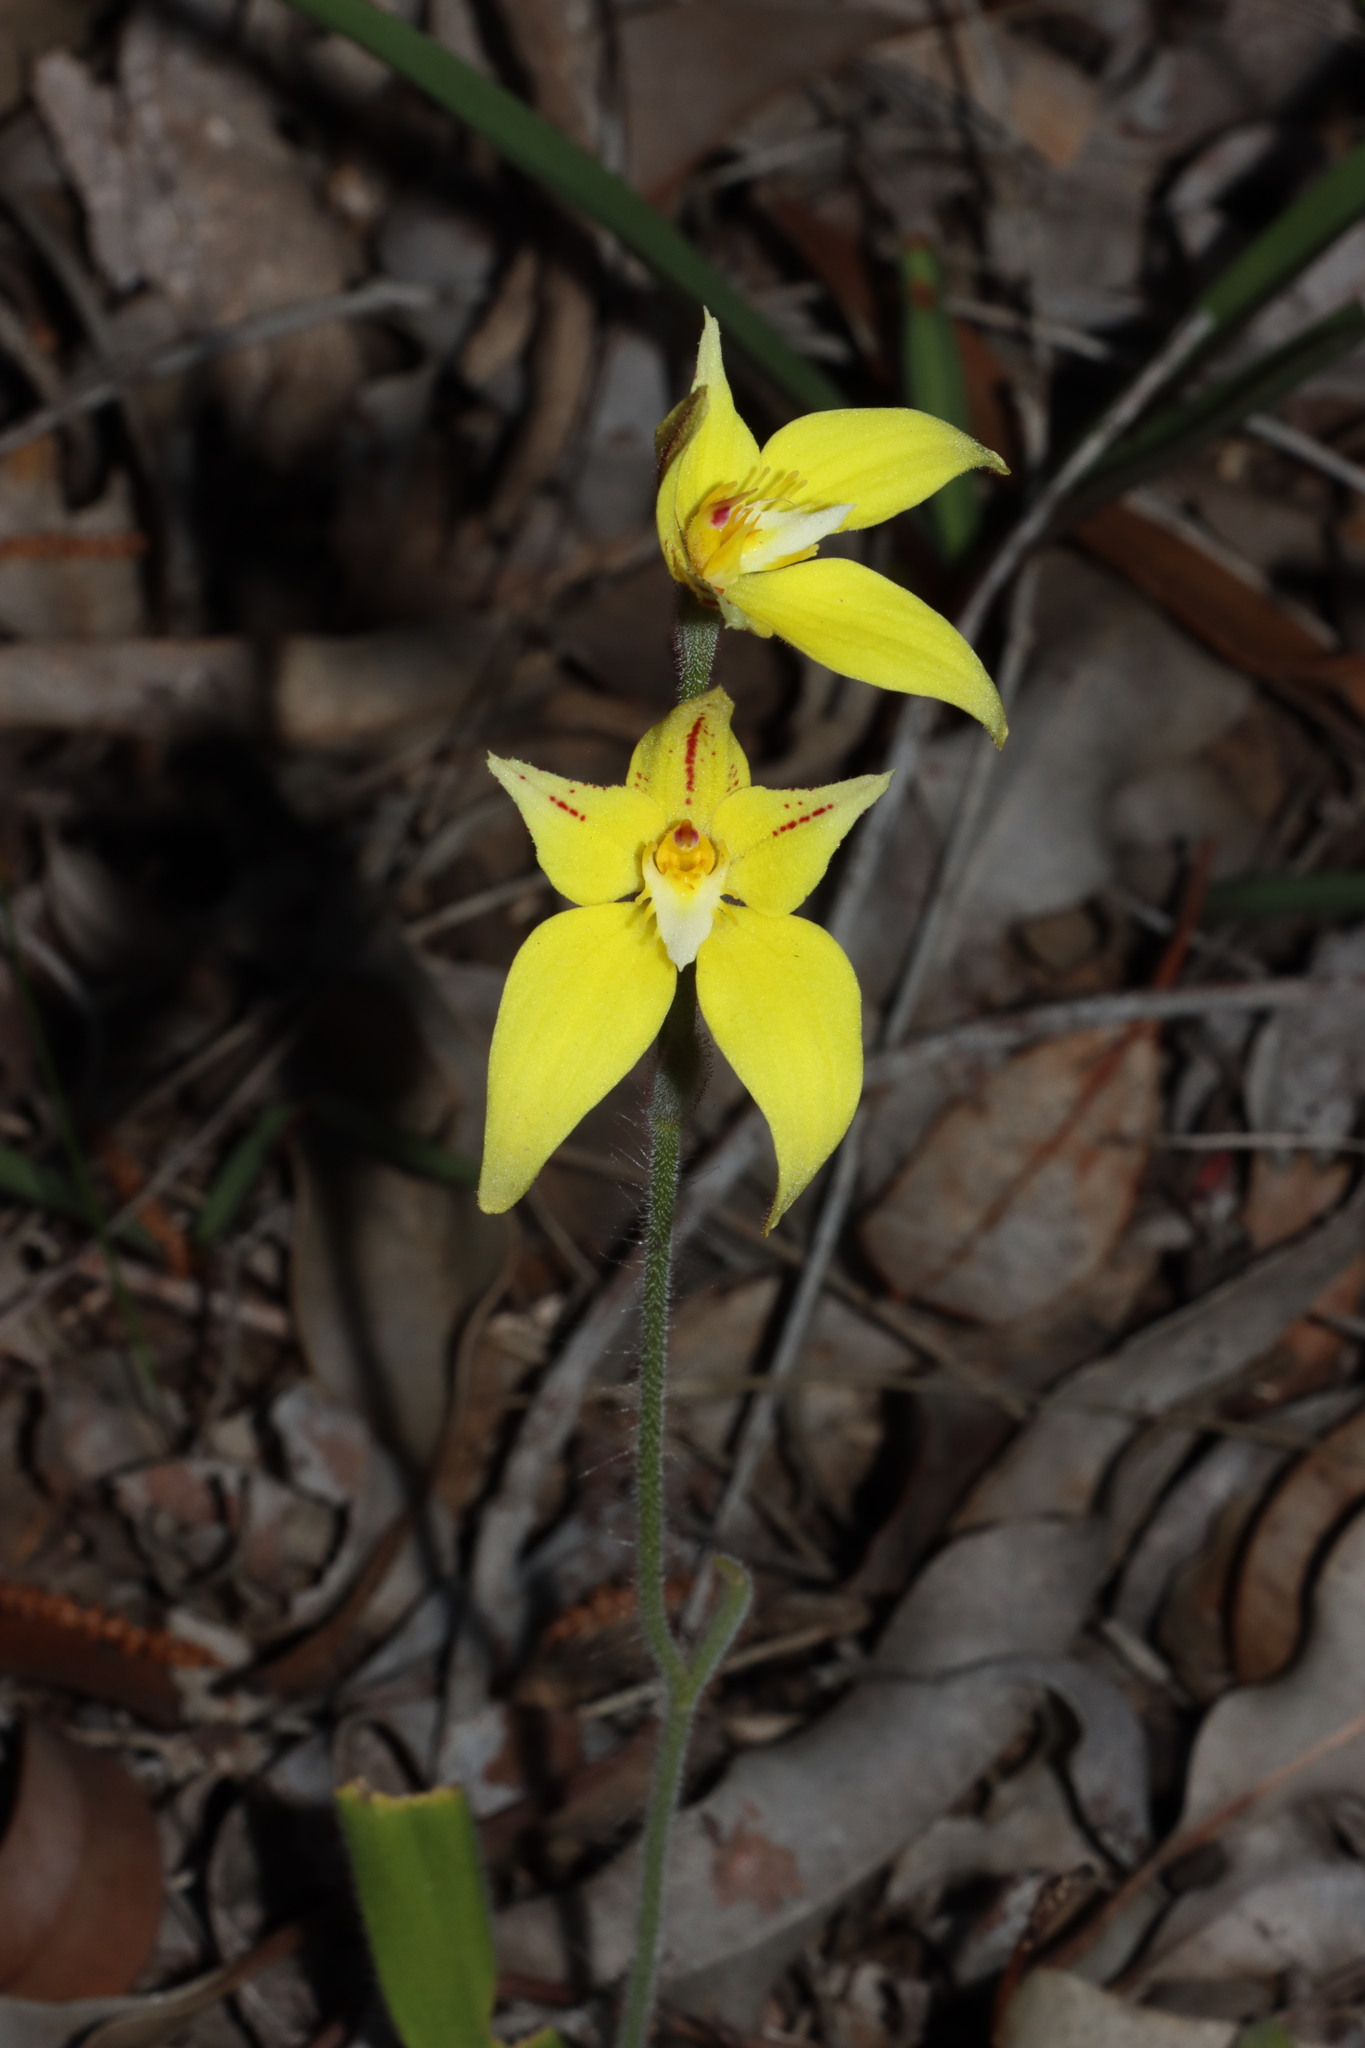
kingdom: Plantae
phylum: Tracheophyta
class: Liliopsida
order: Asparagales
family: Orchidaceae
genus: Caladenia
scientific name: Caladenia flava
